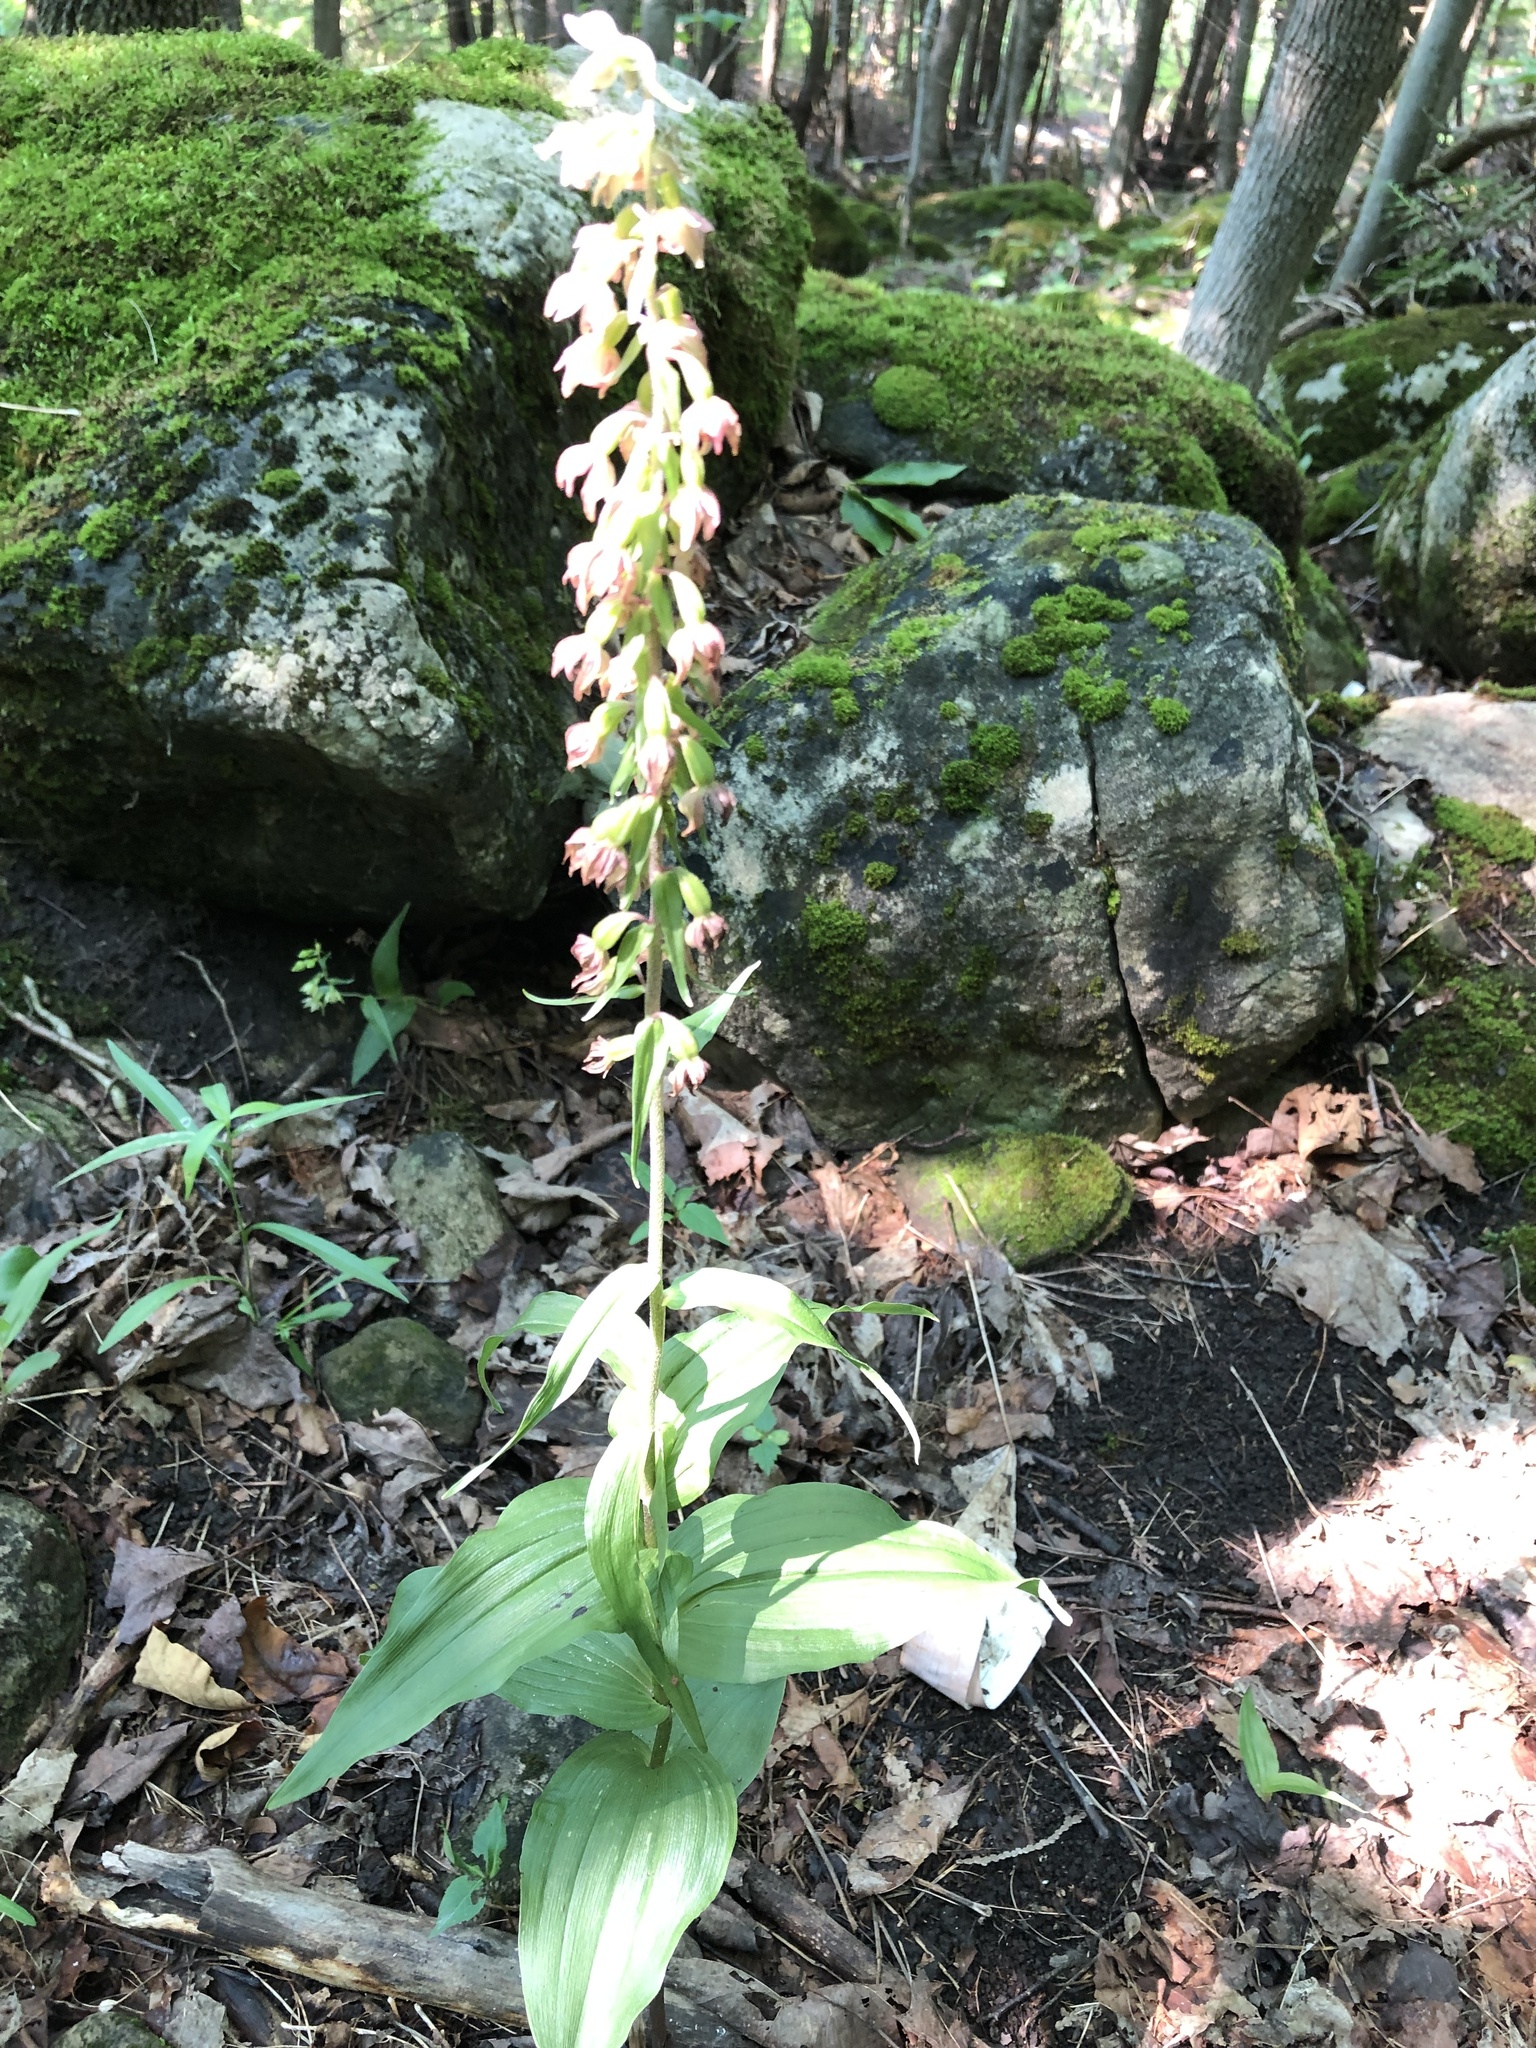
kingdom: Plantae
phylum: Tracheophyta
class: Liliopsida
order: Asparagales
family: Orchidaceae
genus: Epipactis
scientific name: Epipactis helleborine
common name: Broad-leaved helleborine
